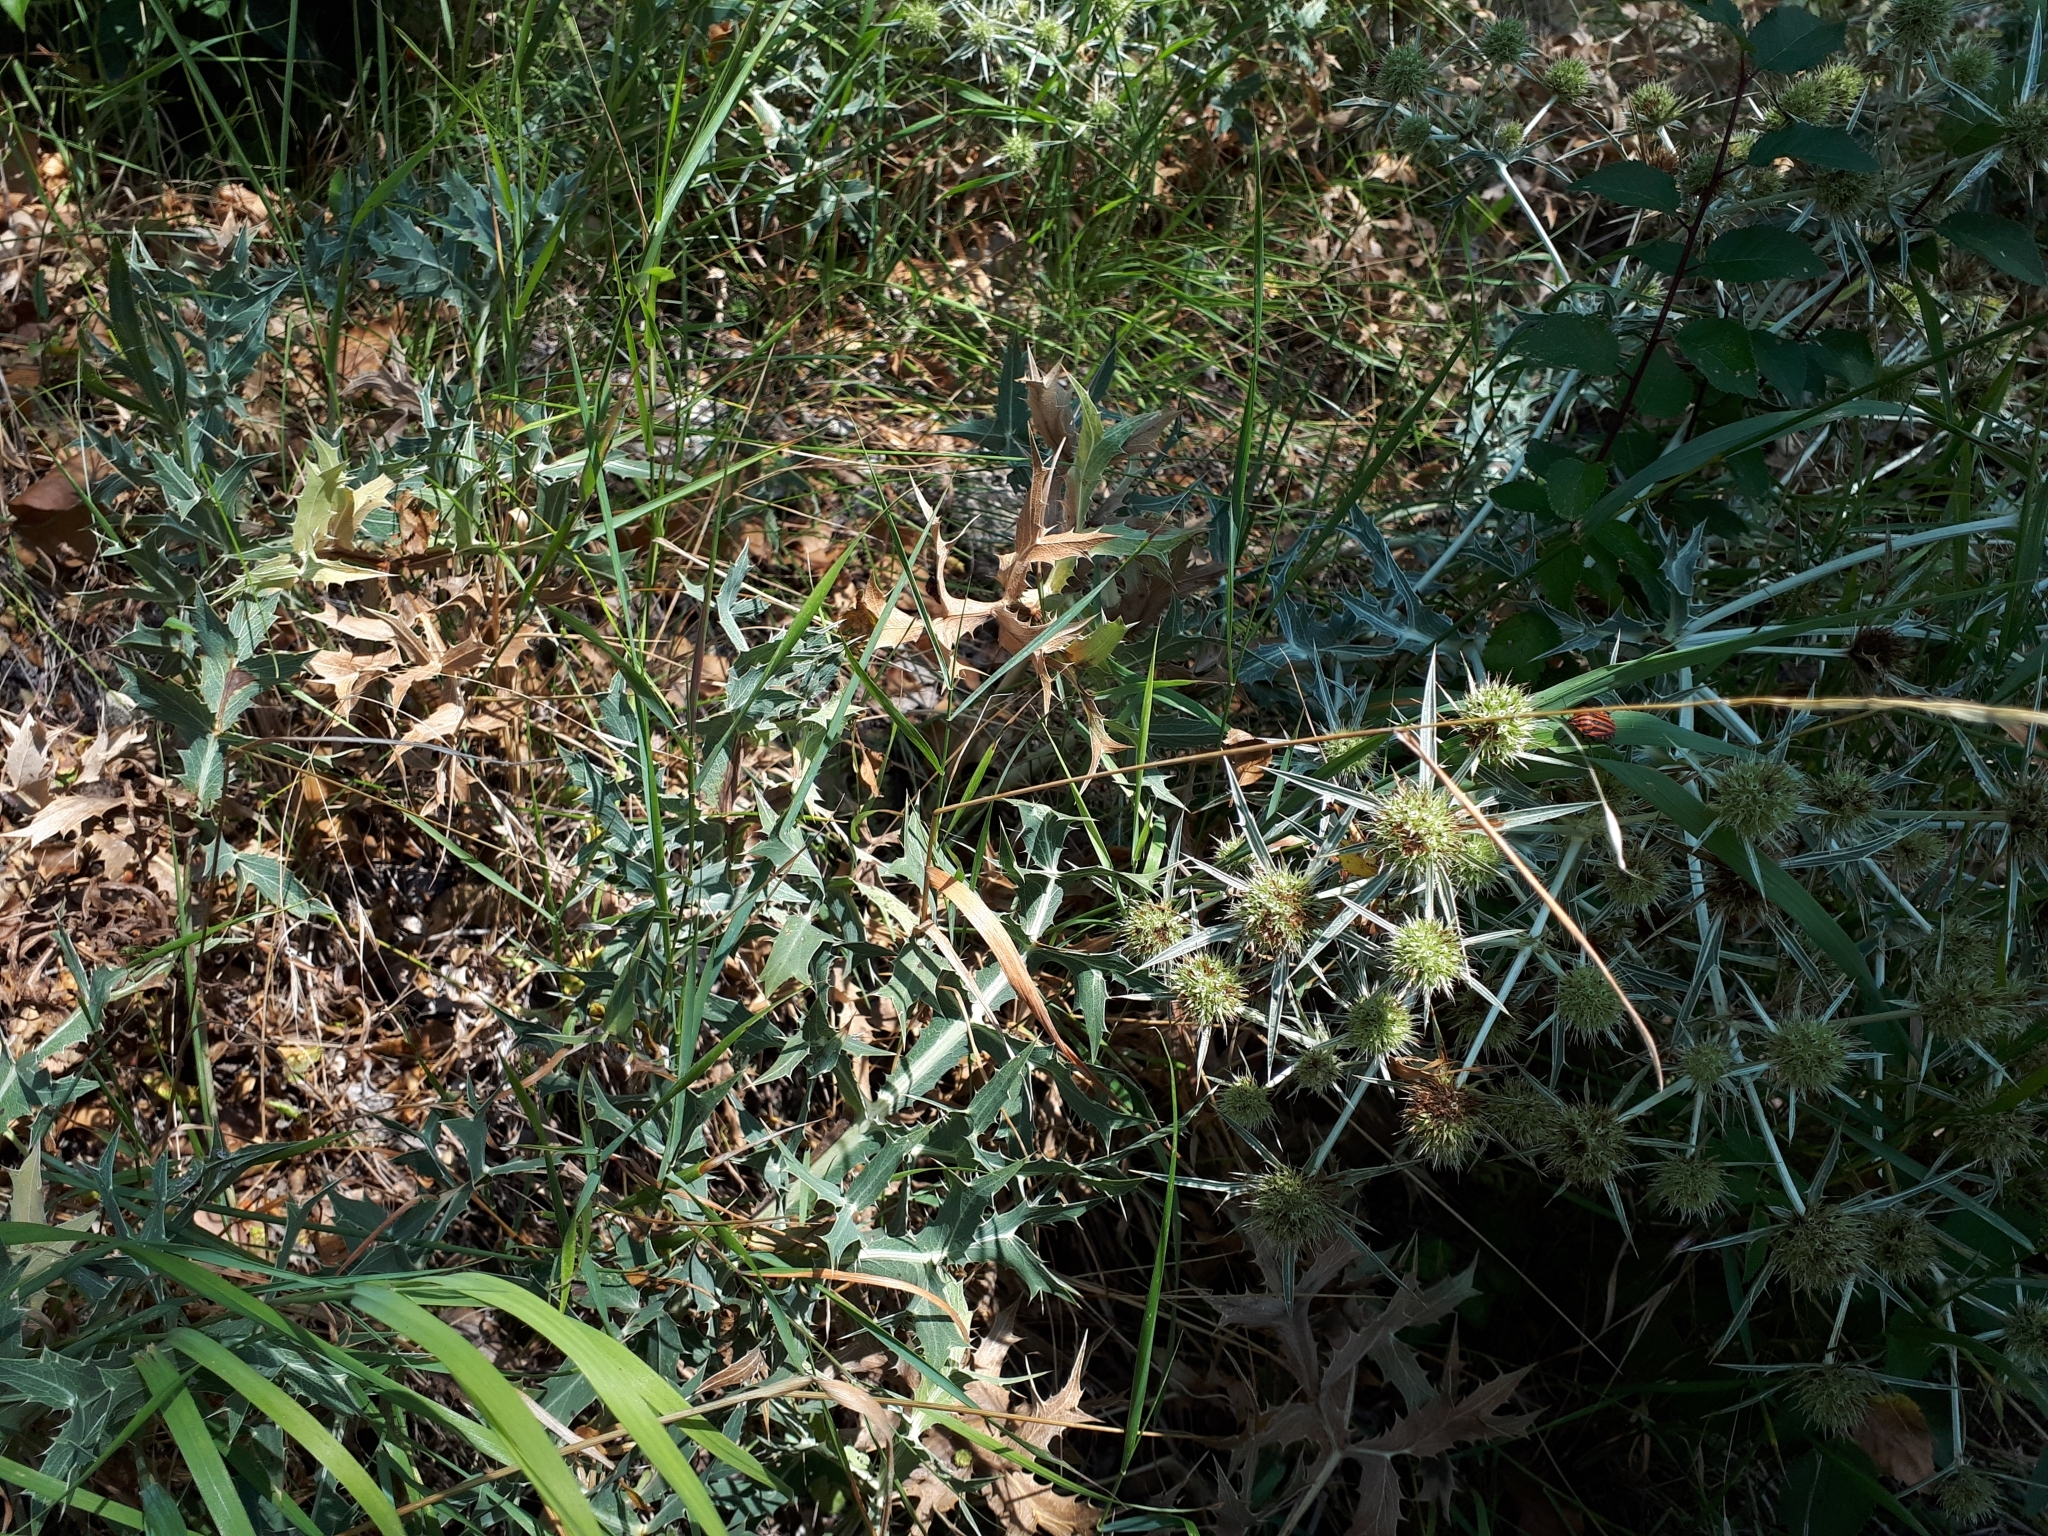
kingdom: Plantae
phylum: Tracheophyta
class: Magnoliopsida
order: Apiales
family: Apiaceae
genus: Eryngium
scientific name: Eryngium campestre
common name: Field eryngo
